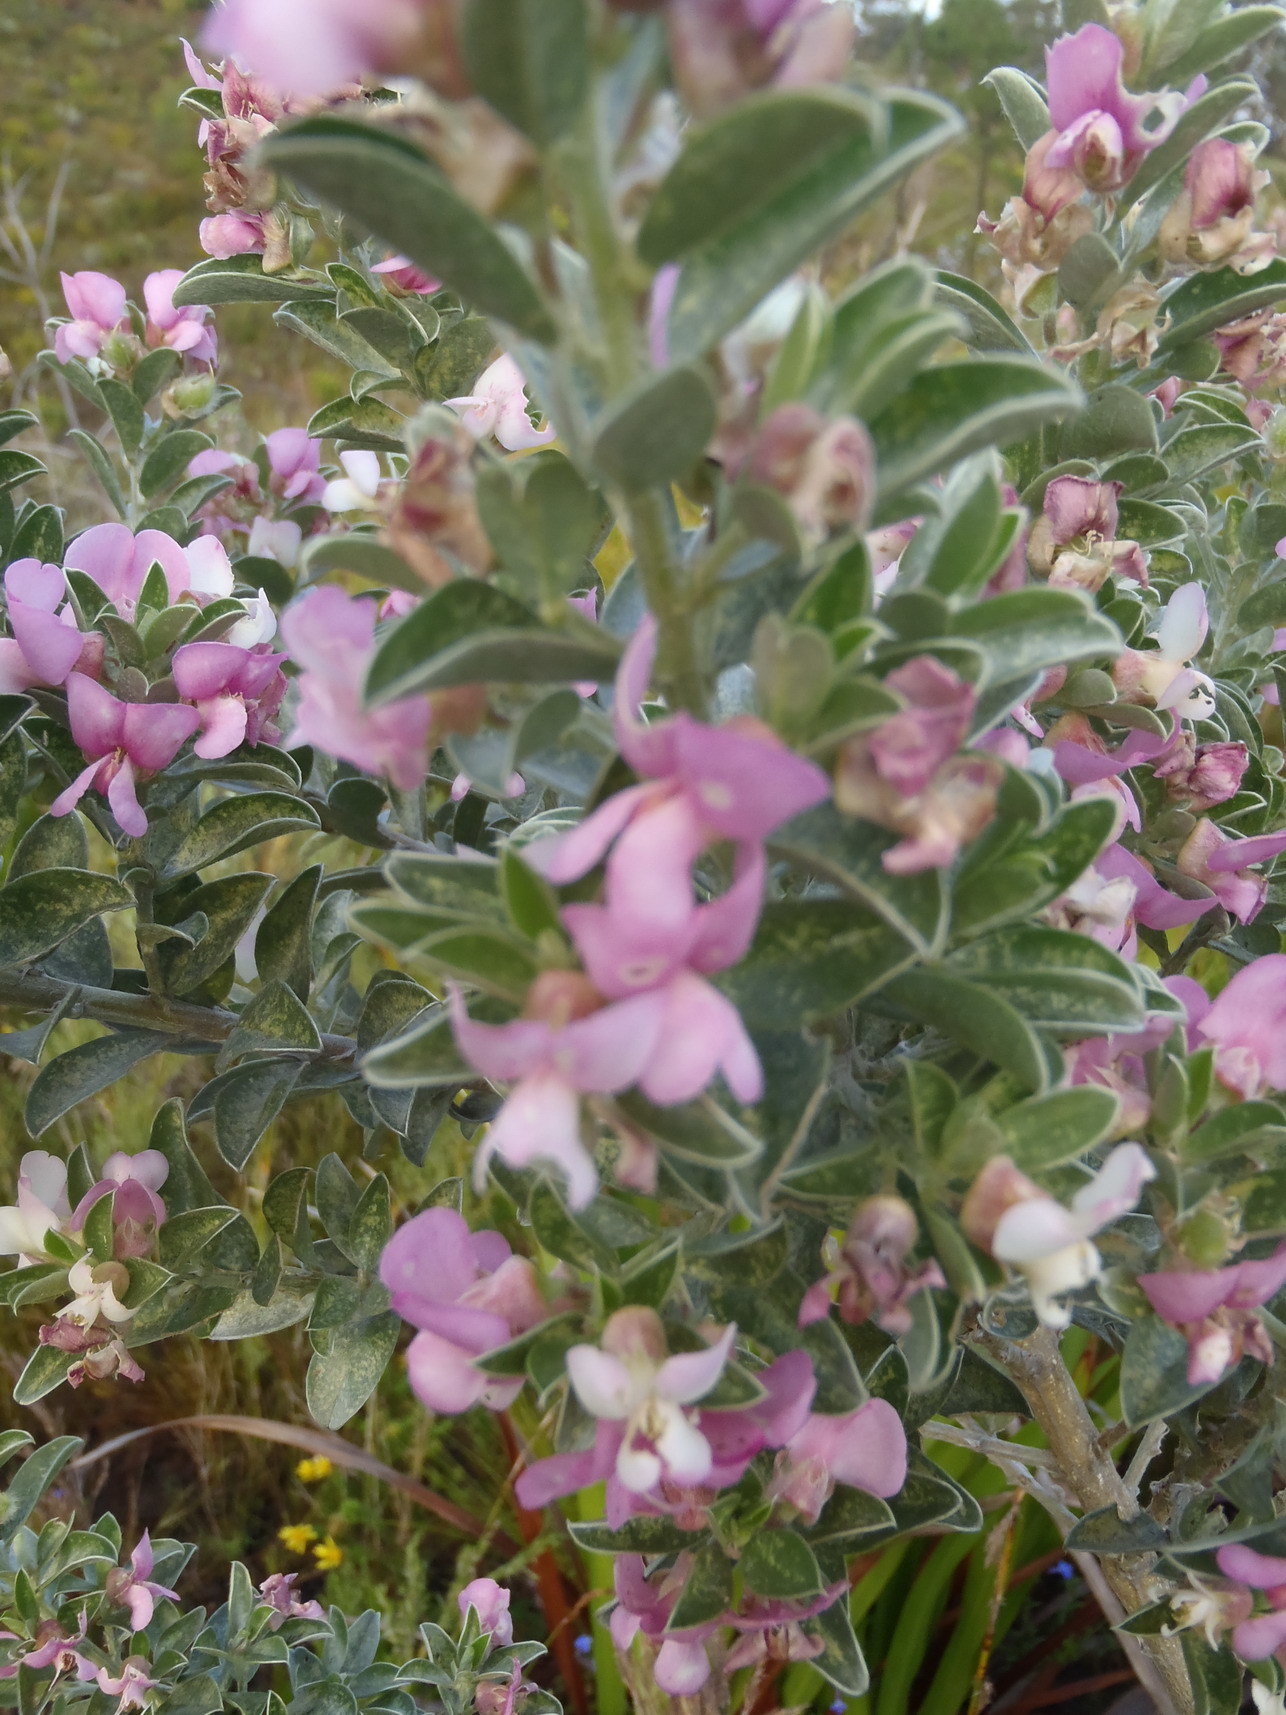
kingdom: Plantae
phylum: Tracheophyta
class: Magnoliopsida
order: Fabales
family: Fabaceae
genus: Podalyria
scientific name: Podalyria myrtillifolia
